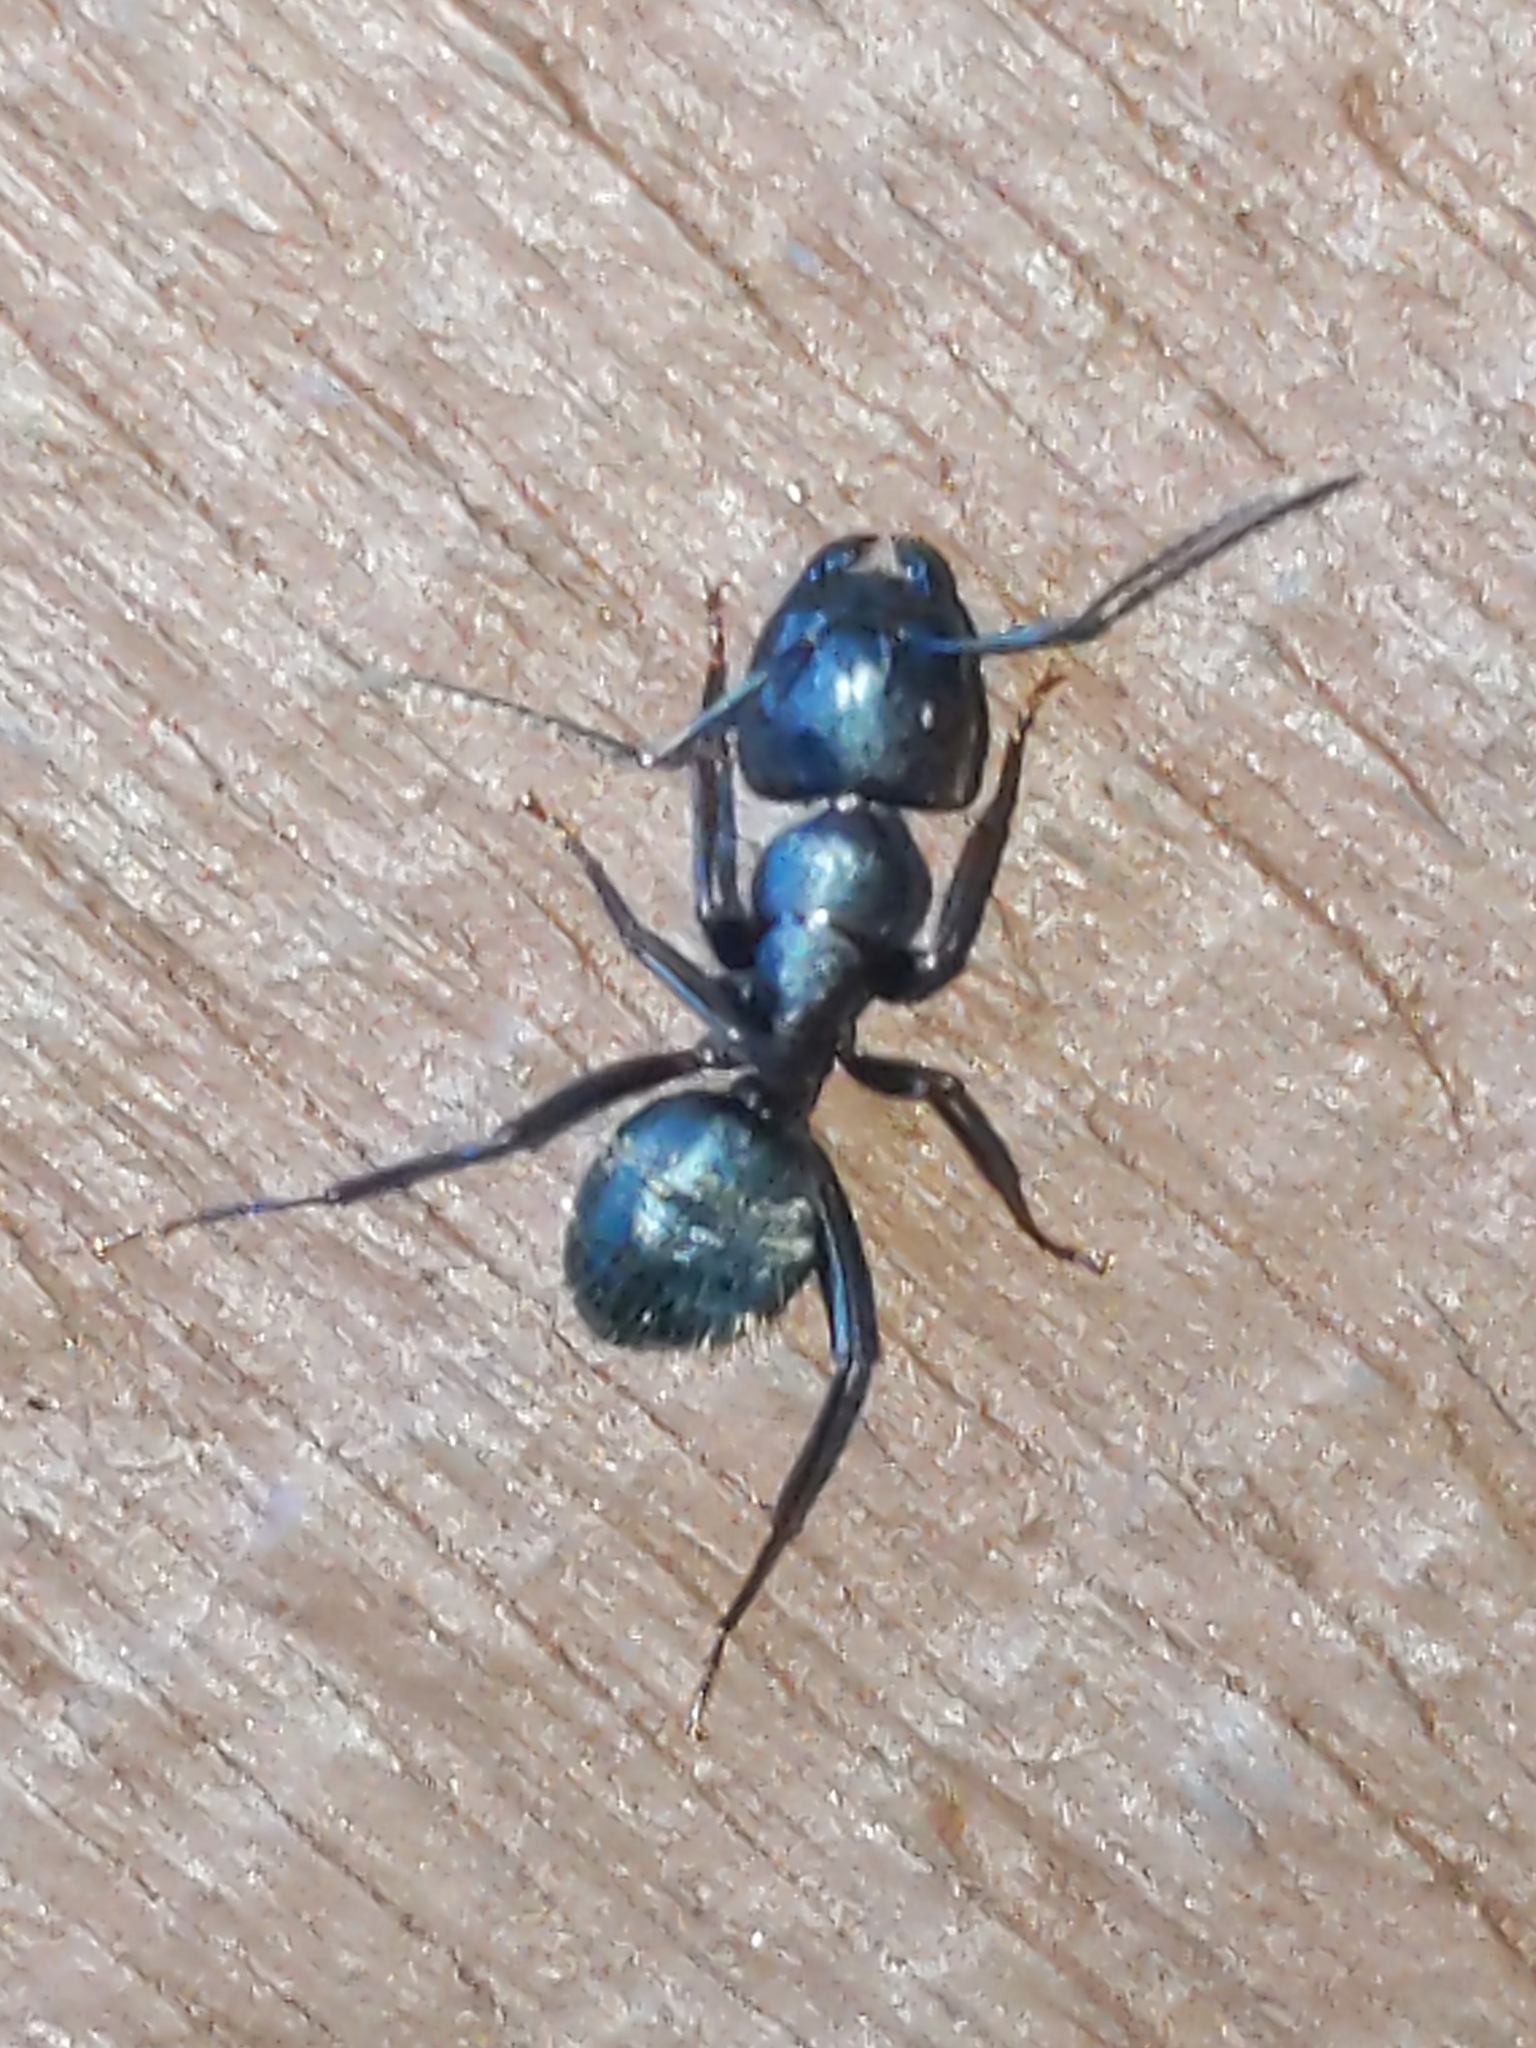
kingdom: Animalia
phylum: Arthropoda
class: Insecta
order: Hymenoptera
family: Formicidae
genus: Camponotus
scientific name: Camponotus pennsylvanicus
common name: Black carpenter ant
